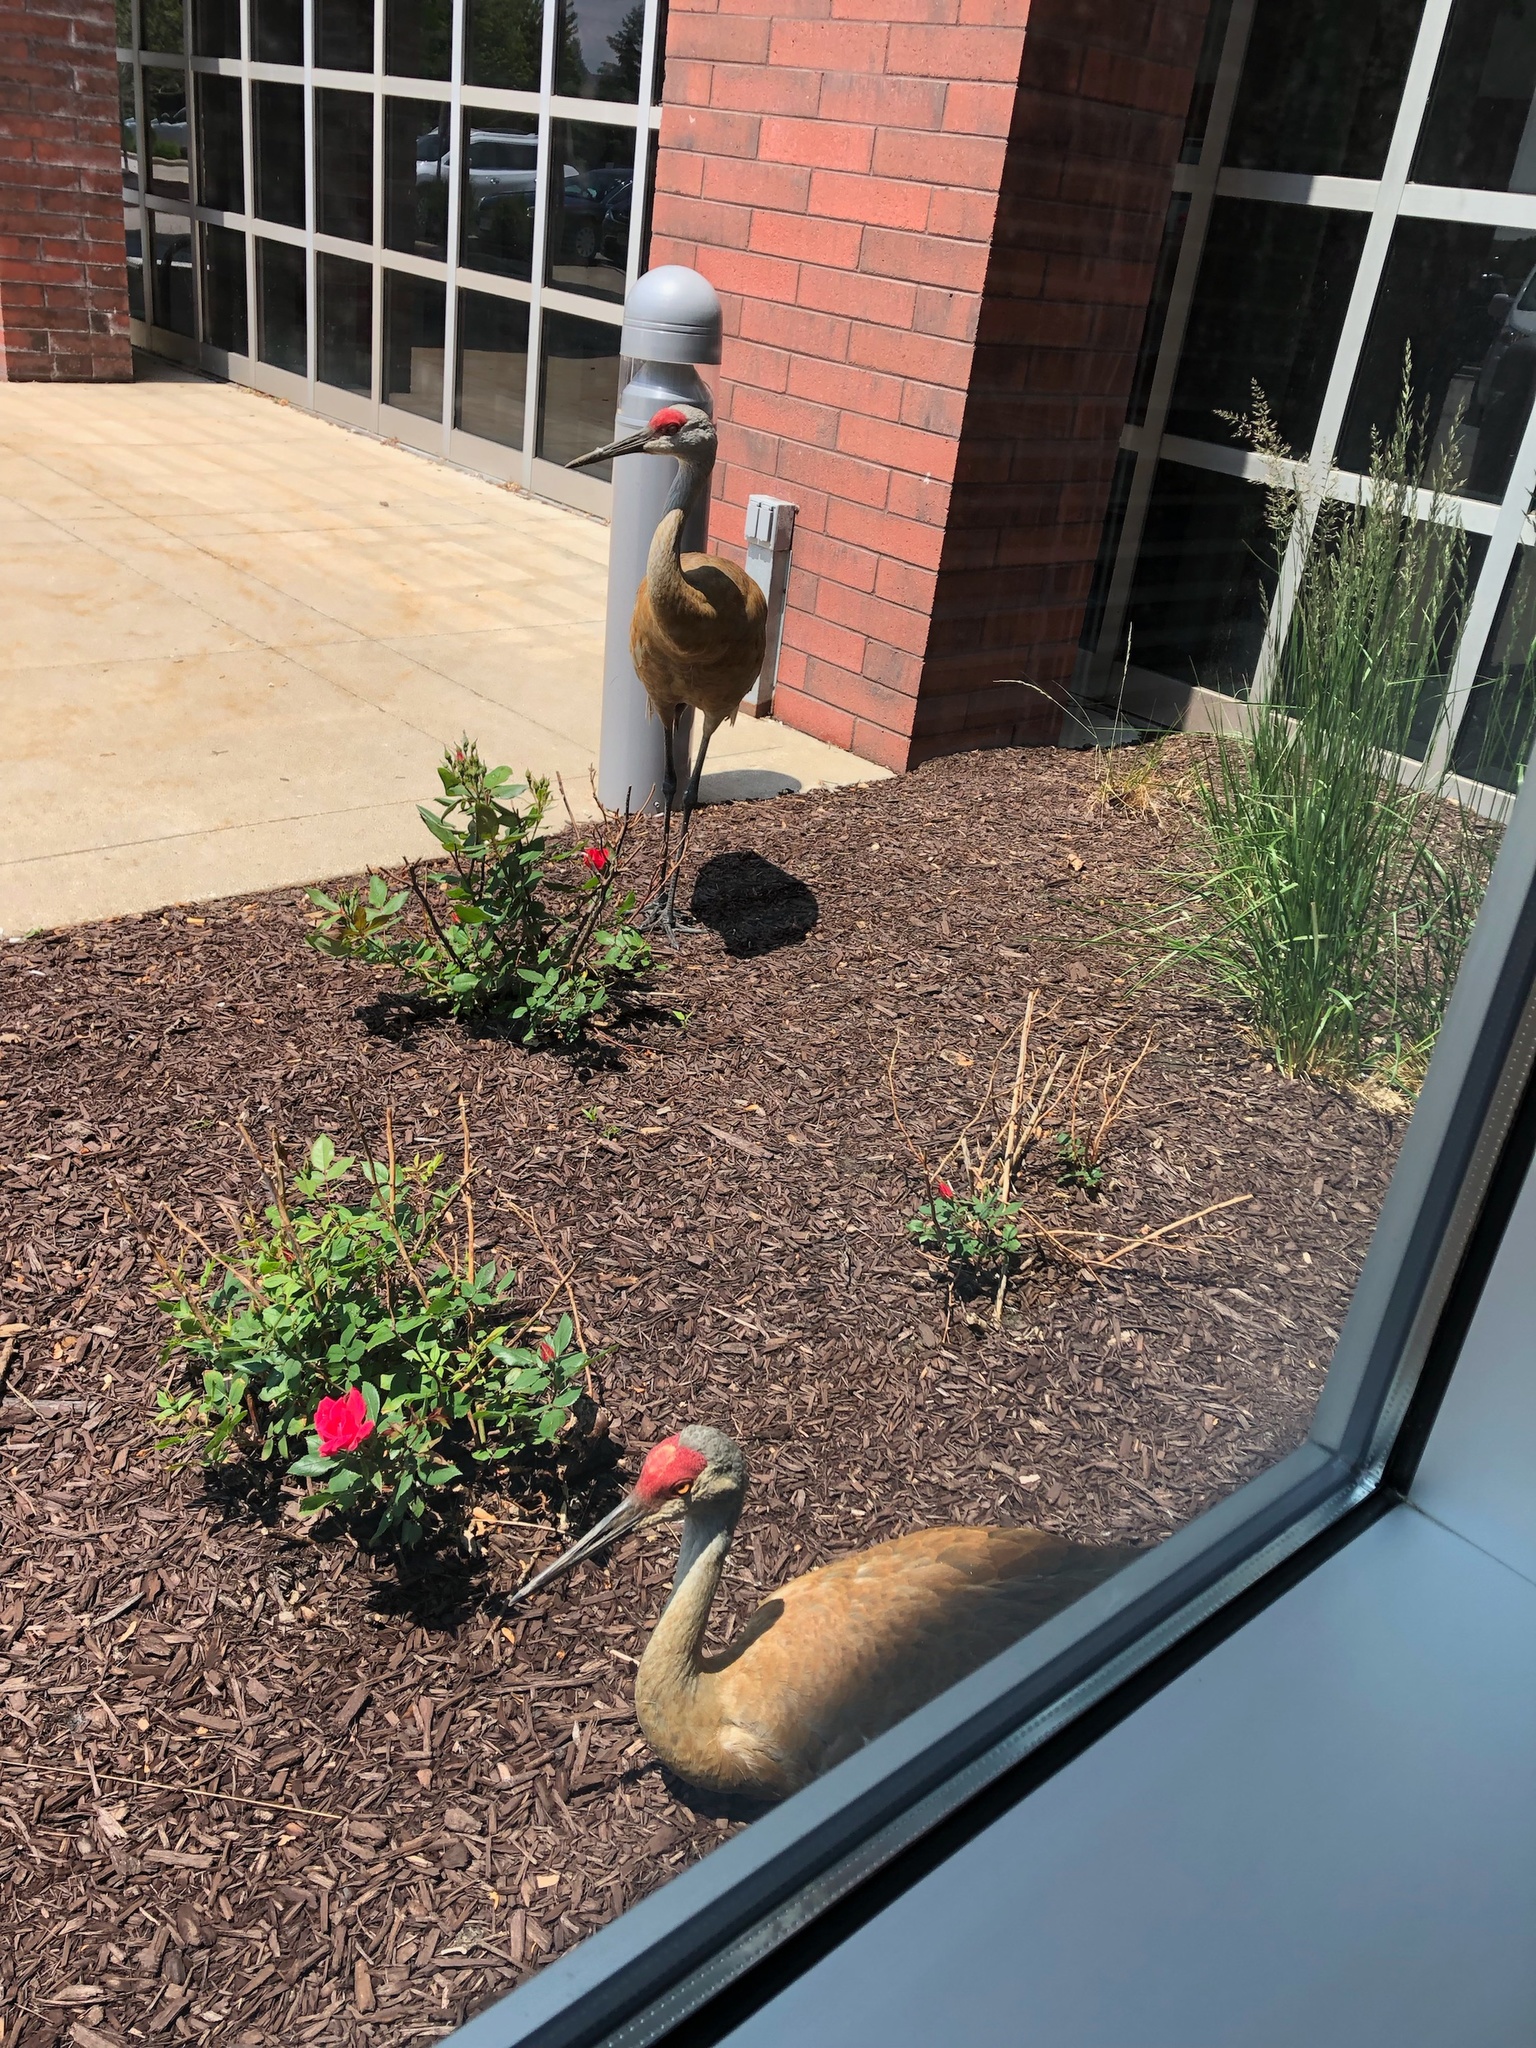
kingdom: Animalia
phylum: Chordata
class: Aves
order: Gruiformes
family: Gruidae
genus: Grus
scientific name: Grus canadensis
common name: Sandhill crane
